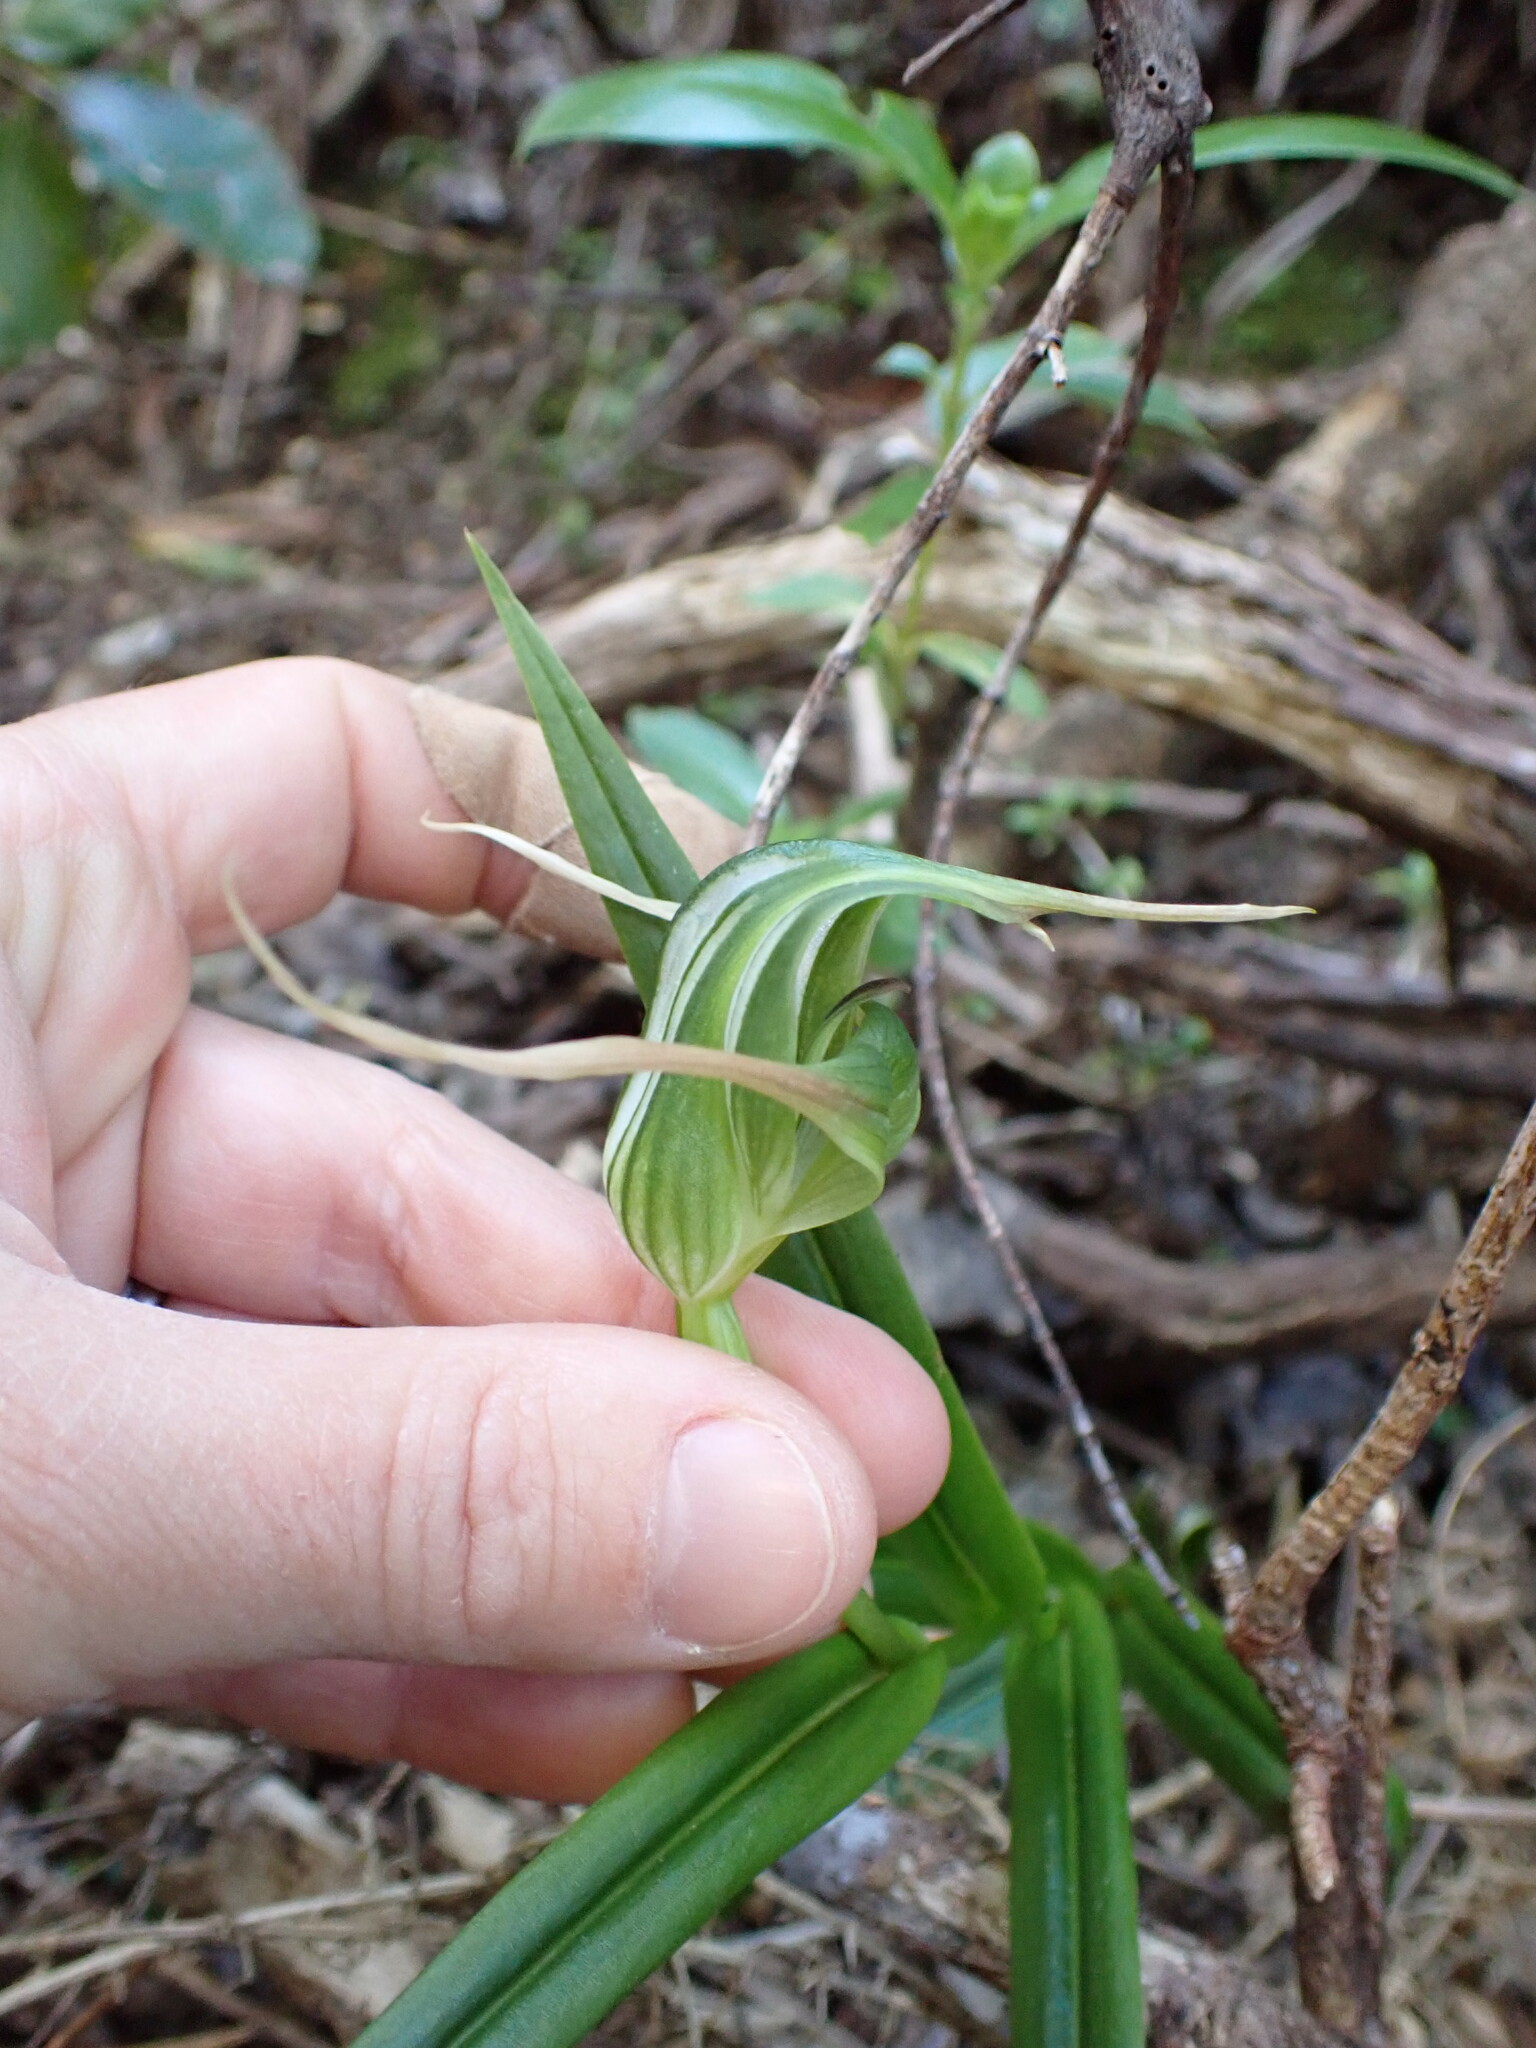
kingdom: Plantae
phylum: Tracheophyta
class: Liliopsida
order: Asparagales
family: Orchidaceae
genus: Pterostylis
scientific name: Pterostylis banksii
